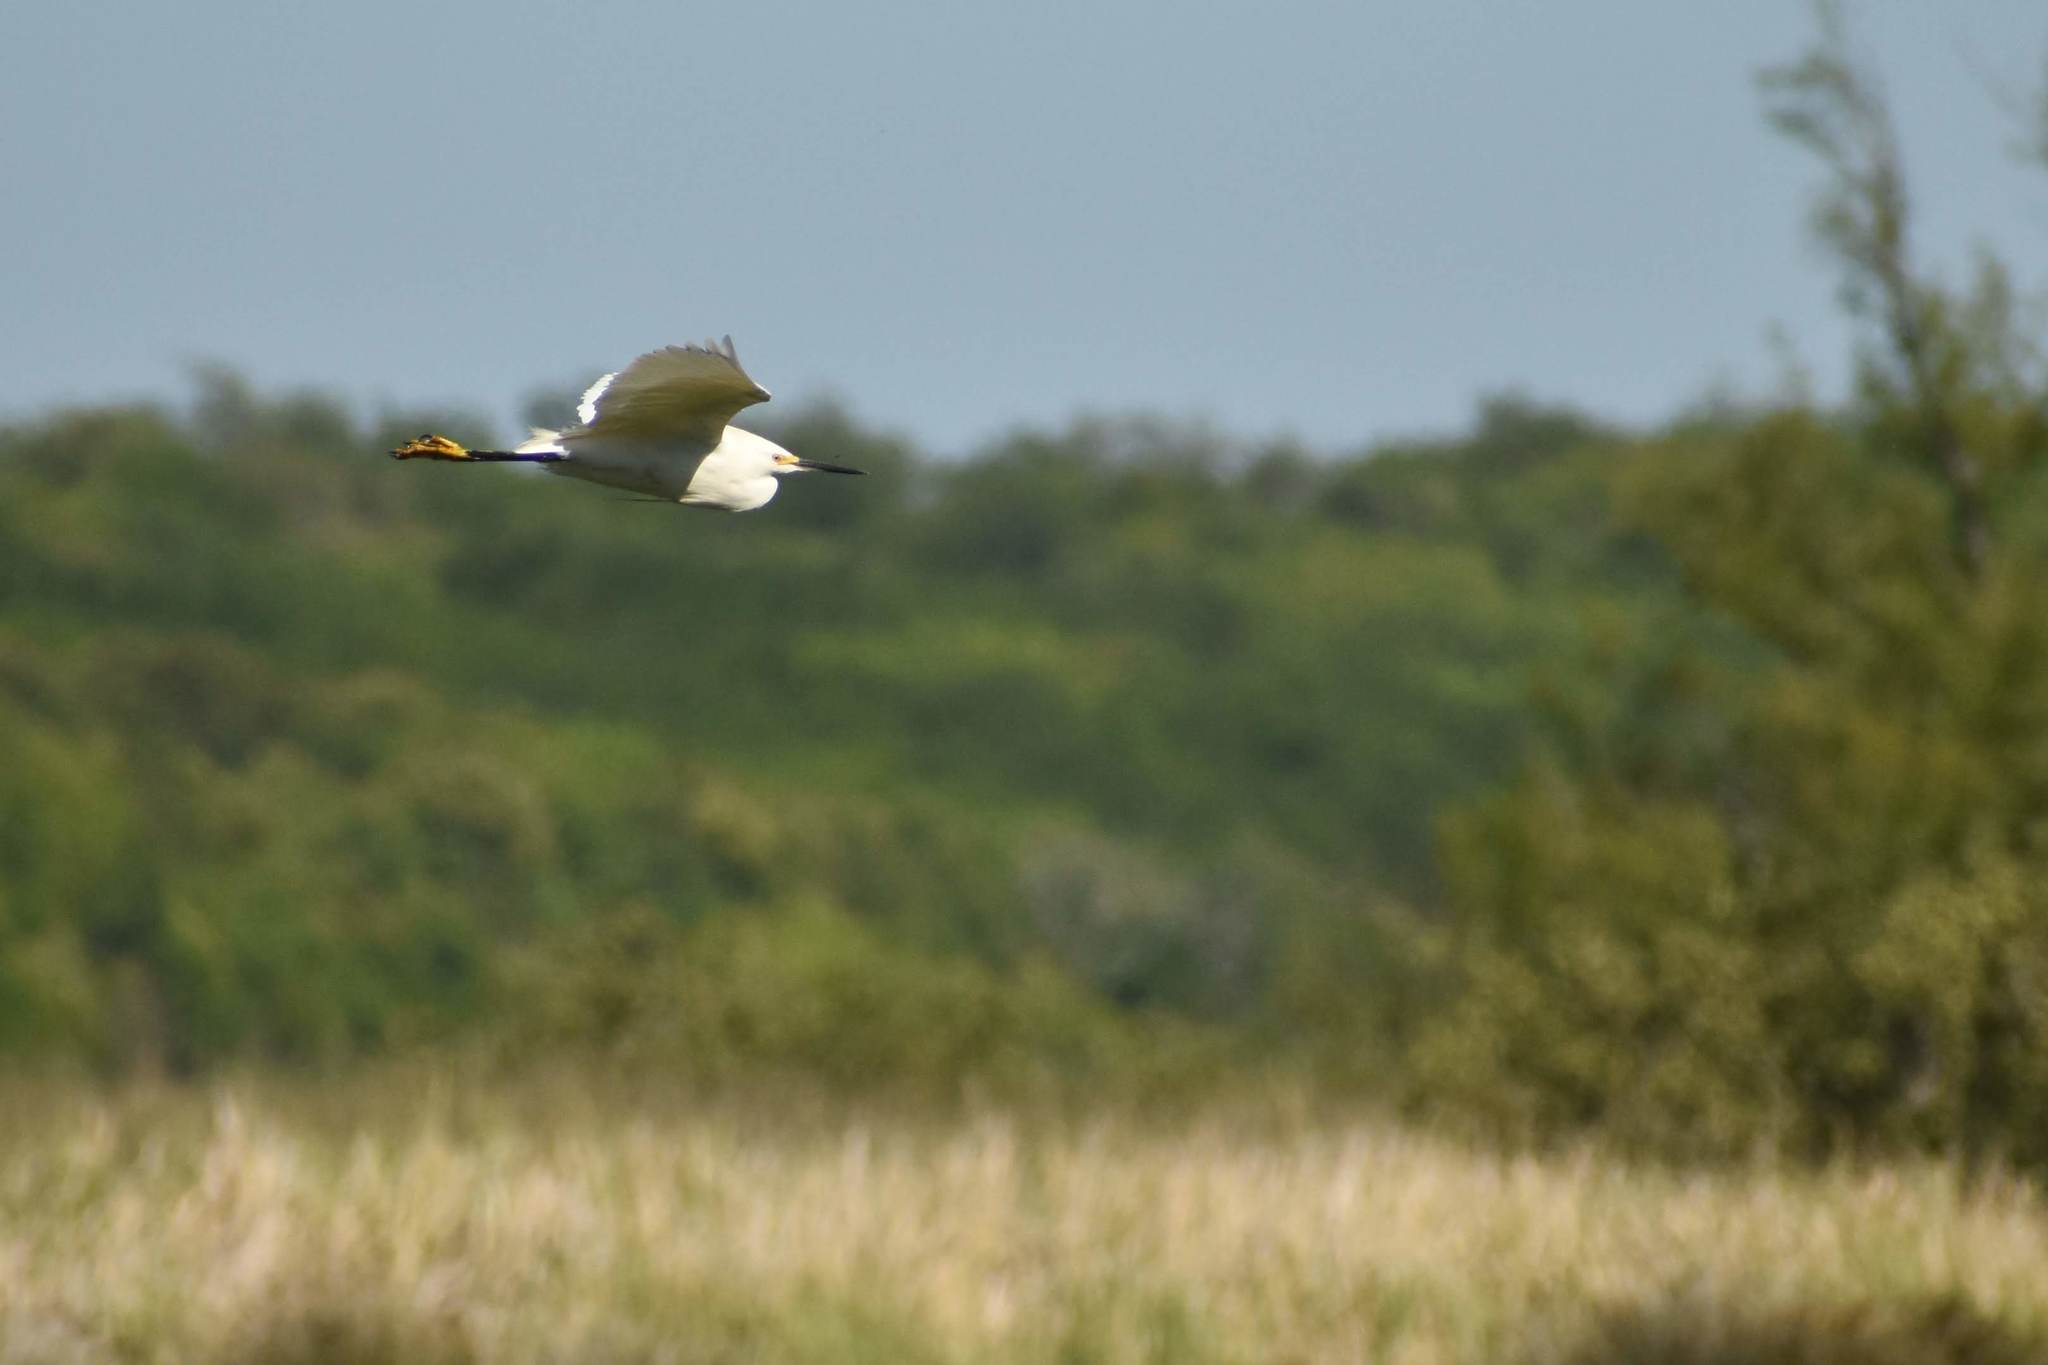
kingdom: Animalia
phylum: Chordata
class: Aves
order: Pelecaniformes
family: Ardeidae
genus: Egretta
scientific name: Egretta thula
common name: Snowy egret
